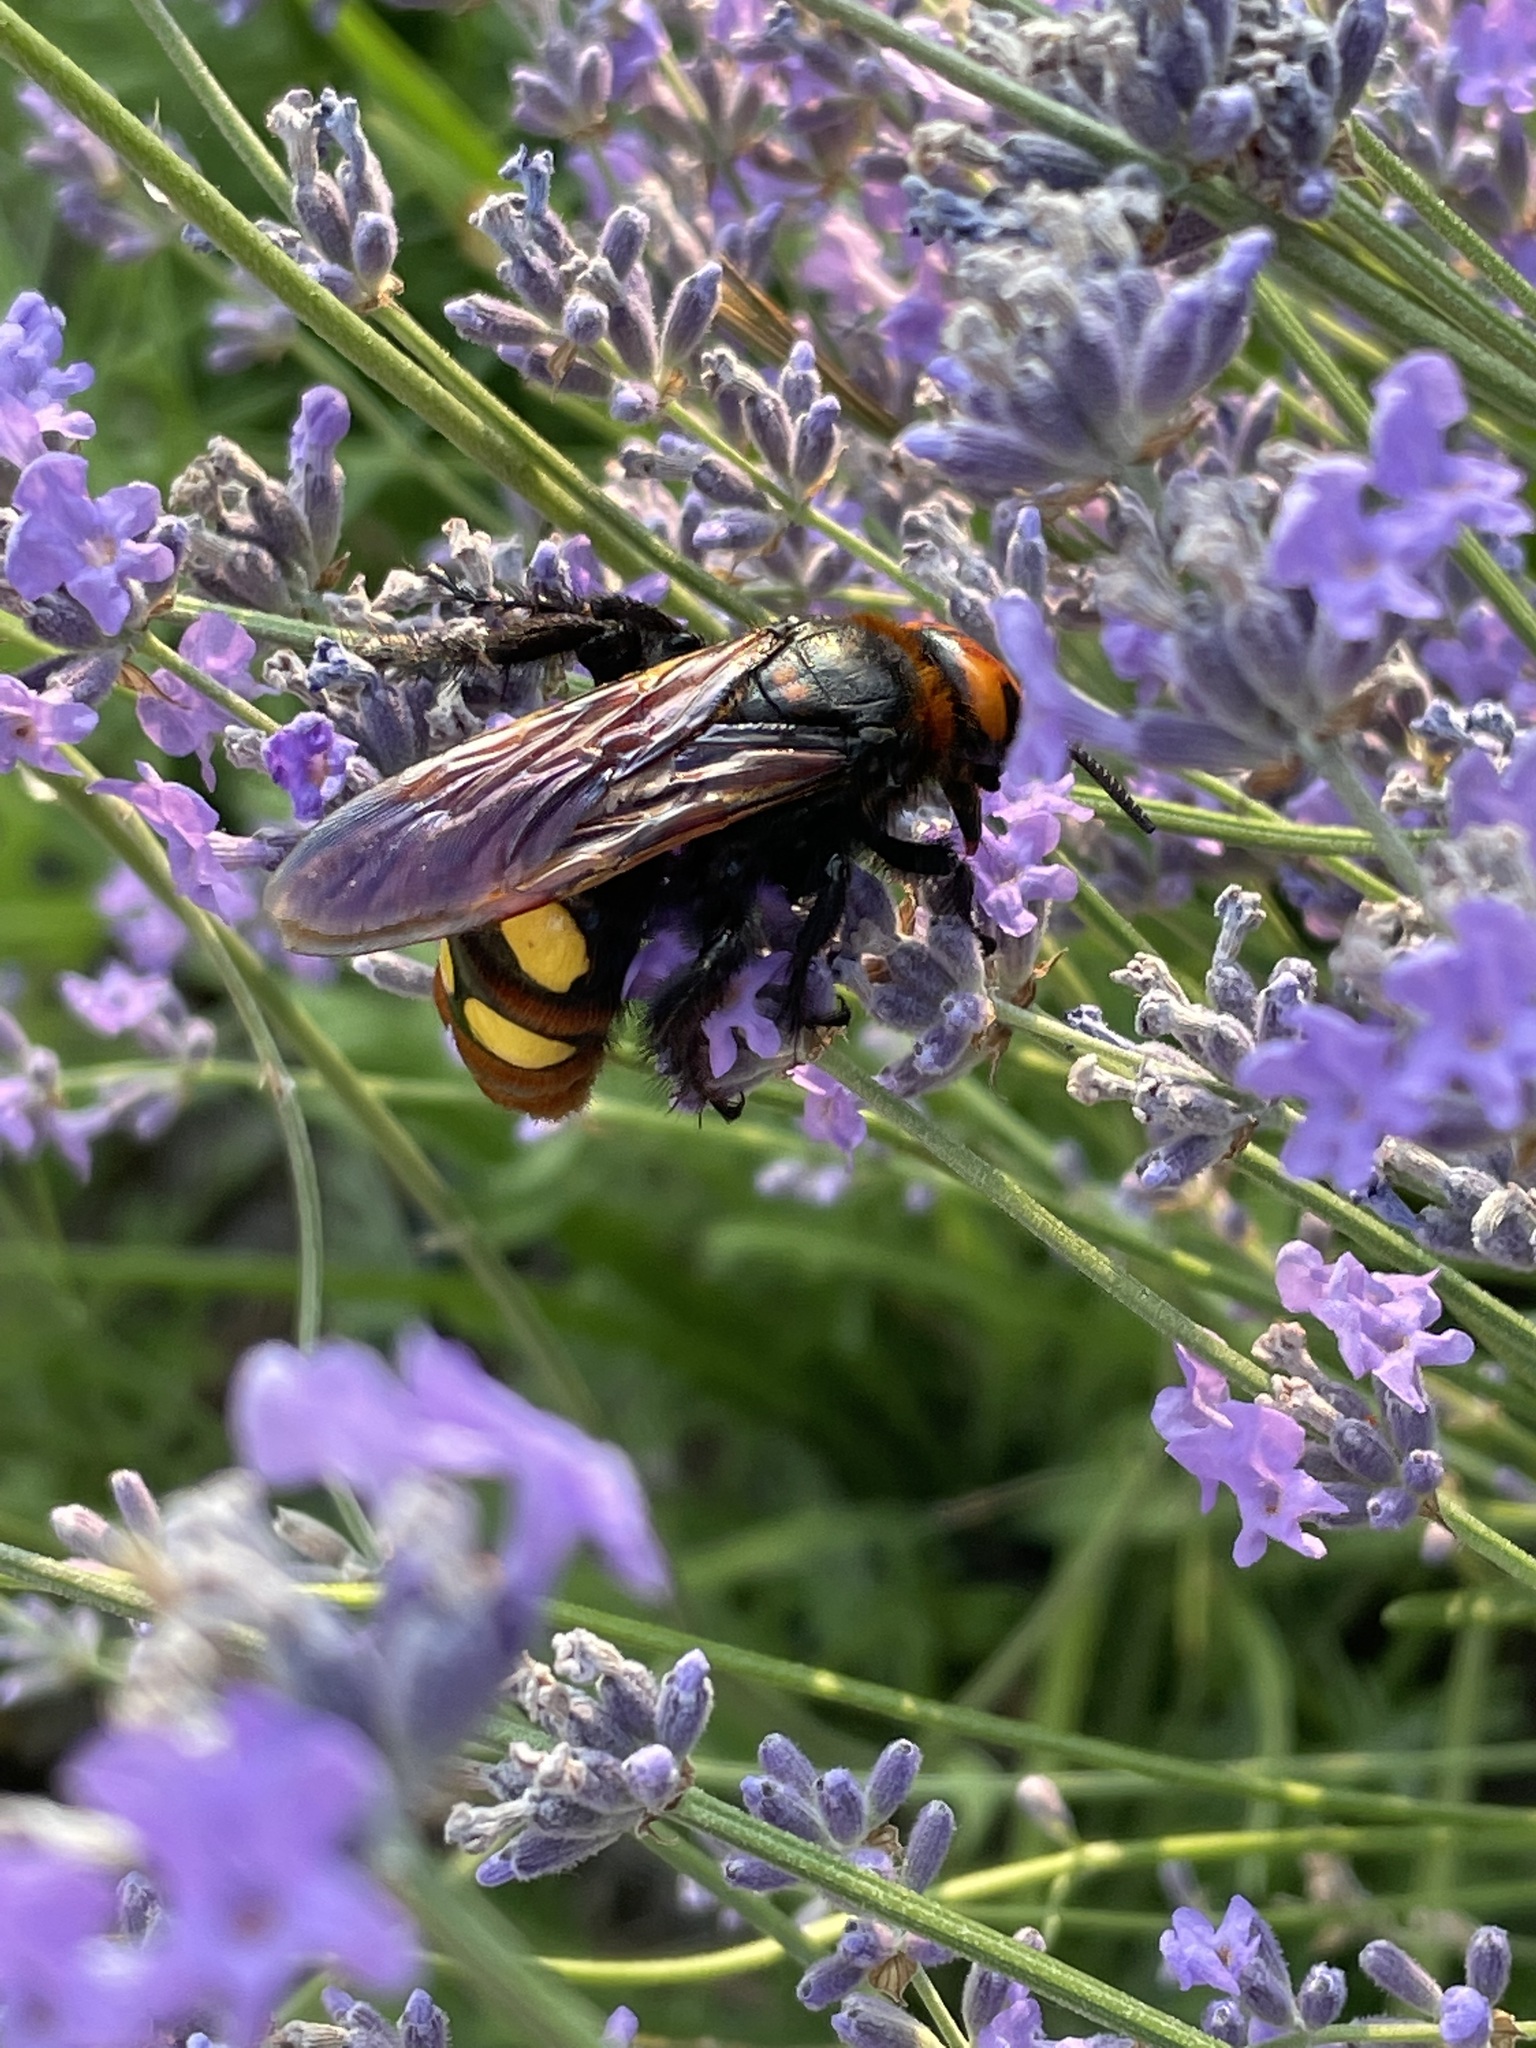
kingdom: Animalia
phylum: Arthropoda
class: Insecta
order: Hymenoptera
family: Scoliidae
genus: Megascolia
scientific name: Megascolia maculata
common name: Mammoth wasp
